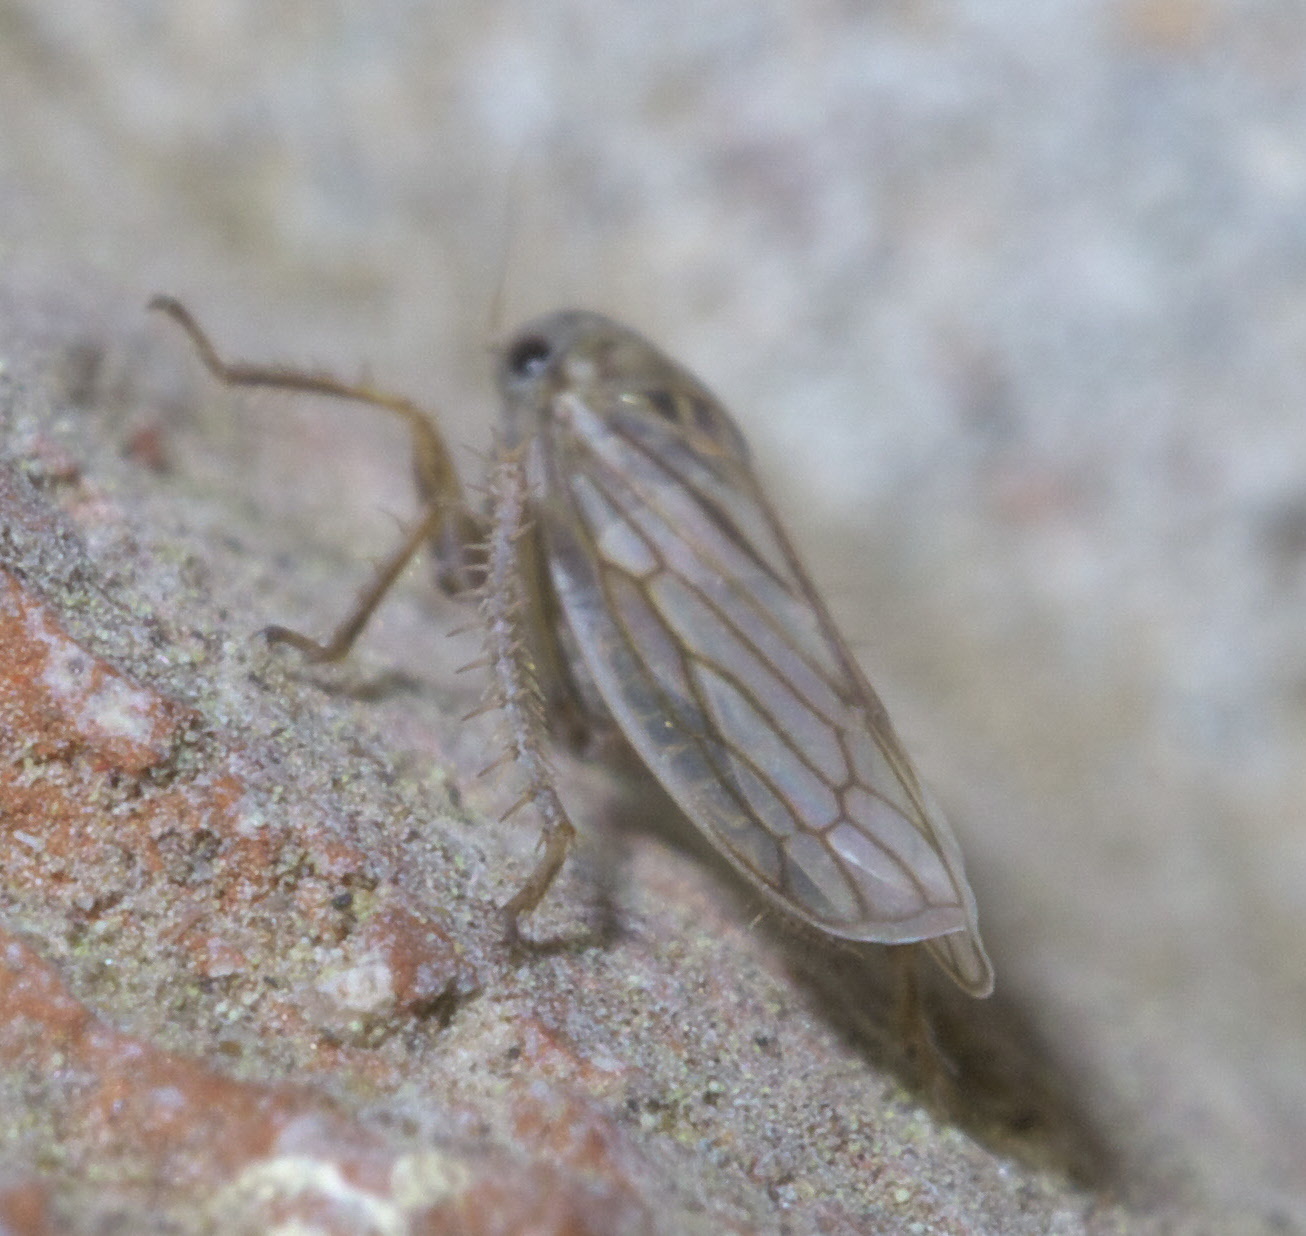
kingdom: Animalia
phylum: Arthropoda
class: Insecta
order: Hemiptera
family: Cicadellidae
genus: Exitianus
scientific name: Exitianus exitiosus
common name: Gray lawn leafhopper
